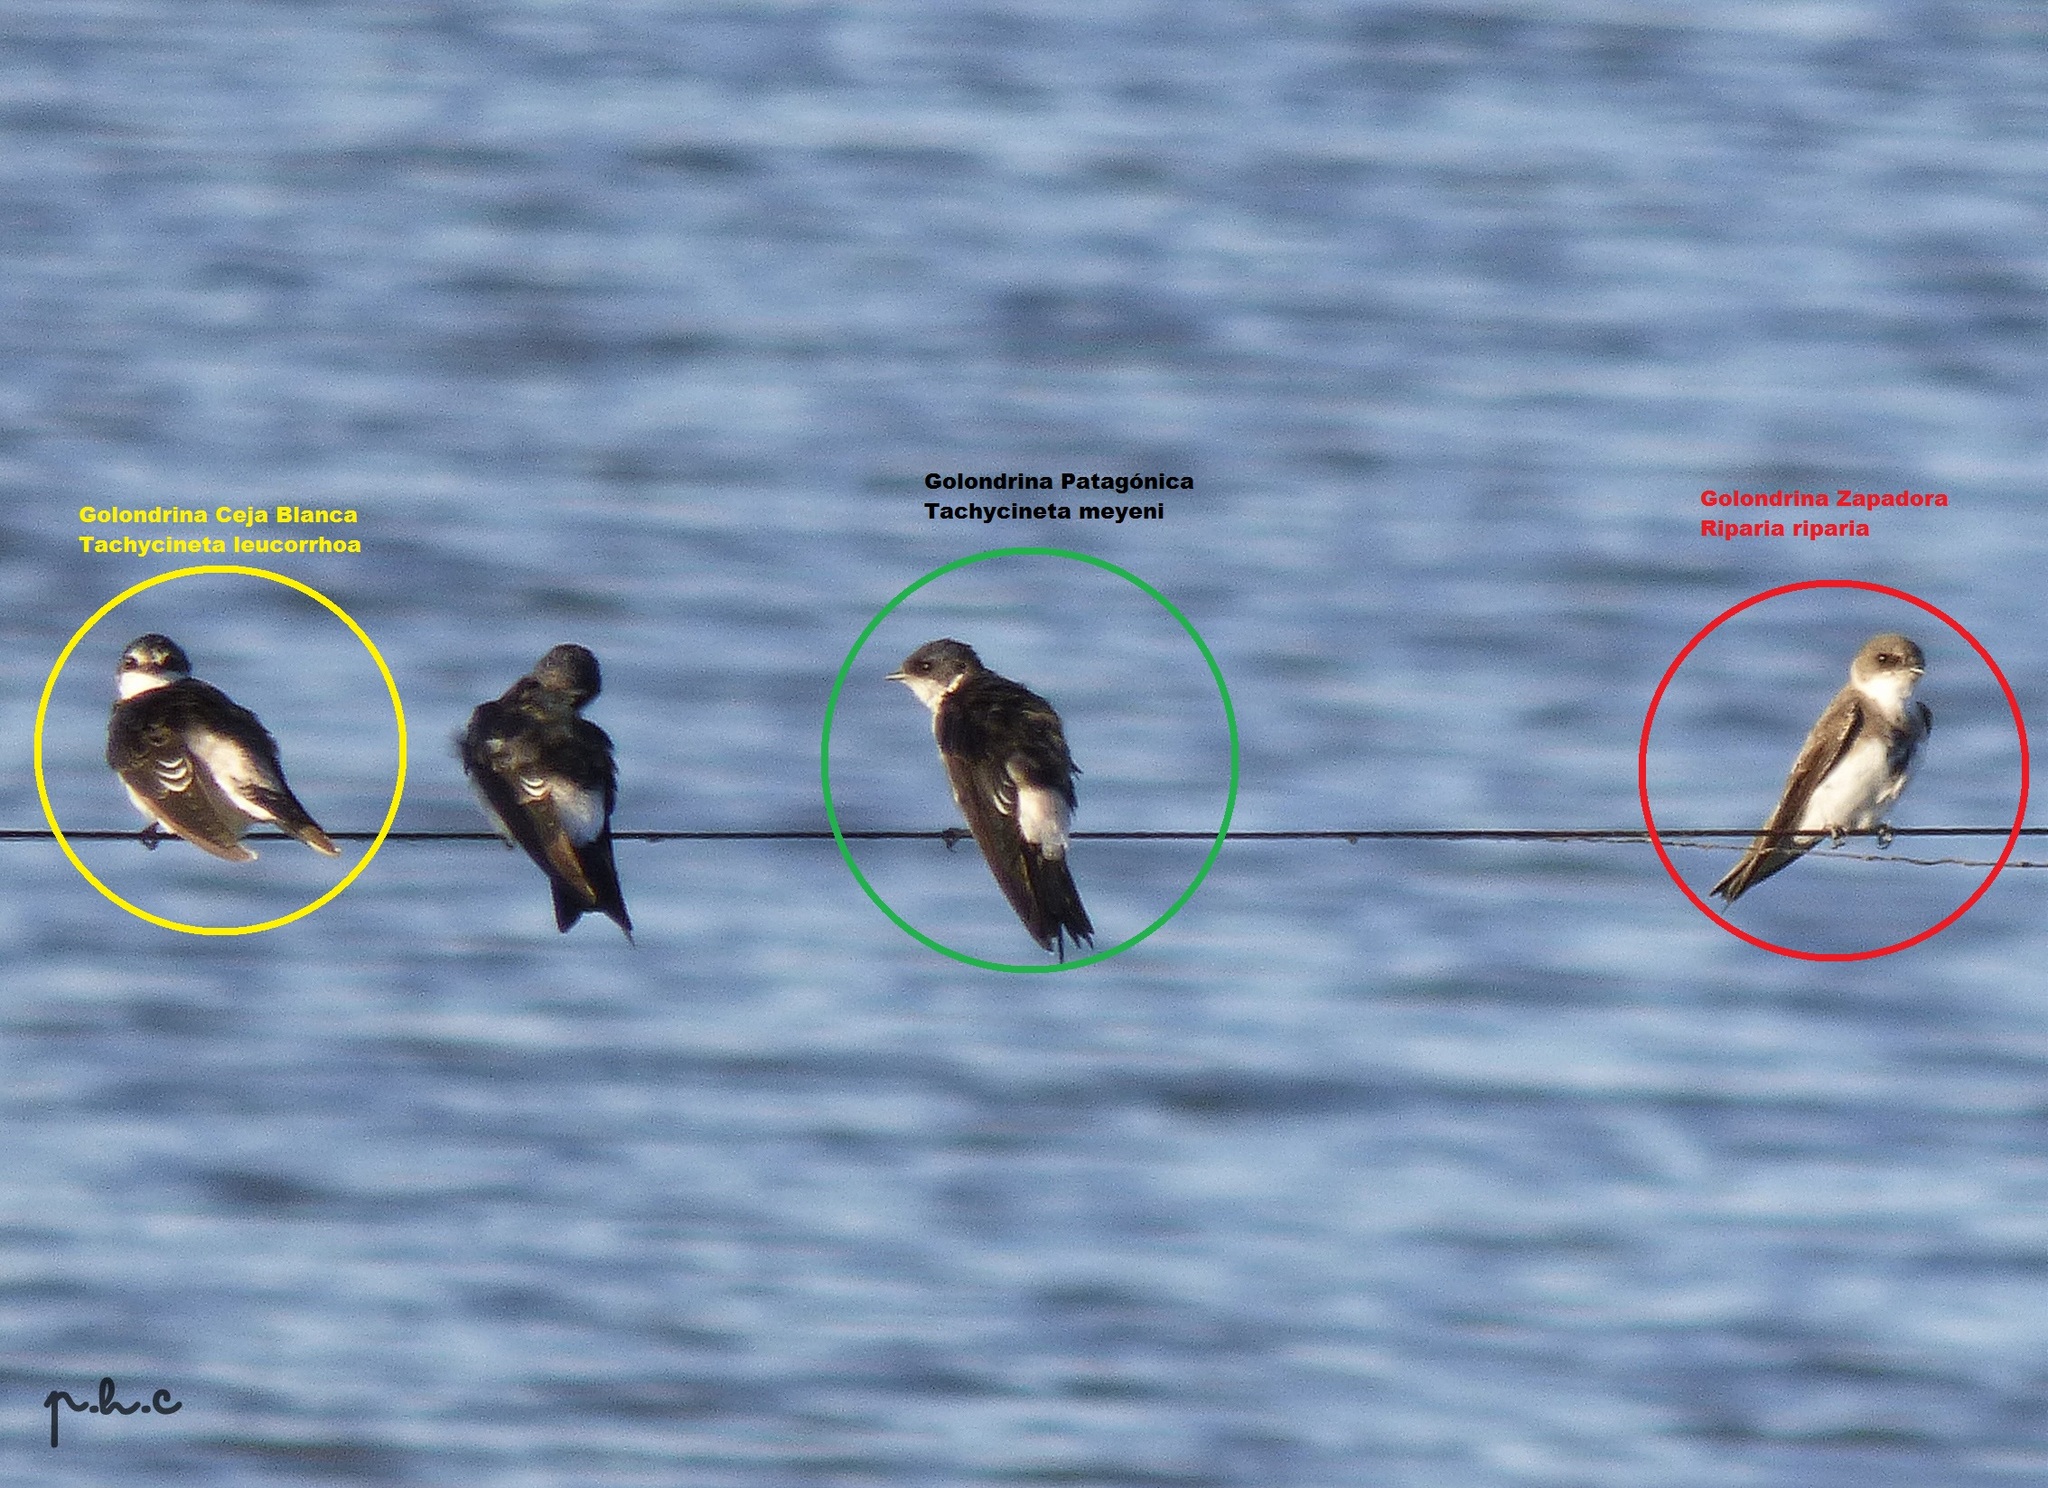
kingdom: Animalia
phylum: Chordata
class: Aves
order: Passeriformes
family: Hirundinidae
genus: Tachycineta
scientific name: Tachycineta leucopyga
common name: Chilean swallow
